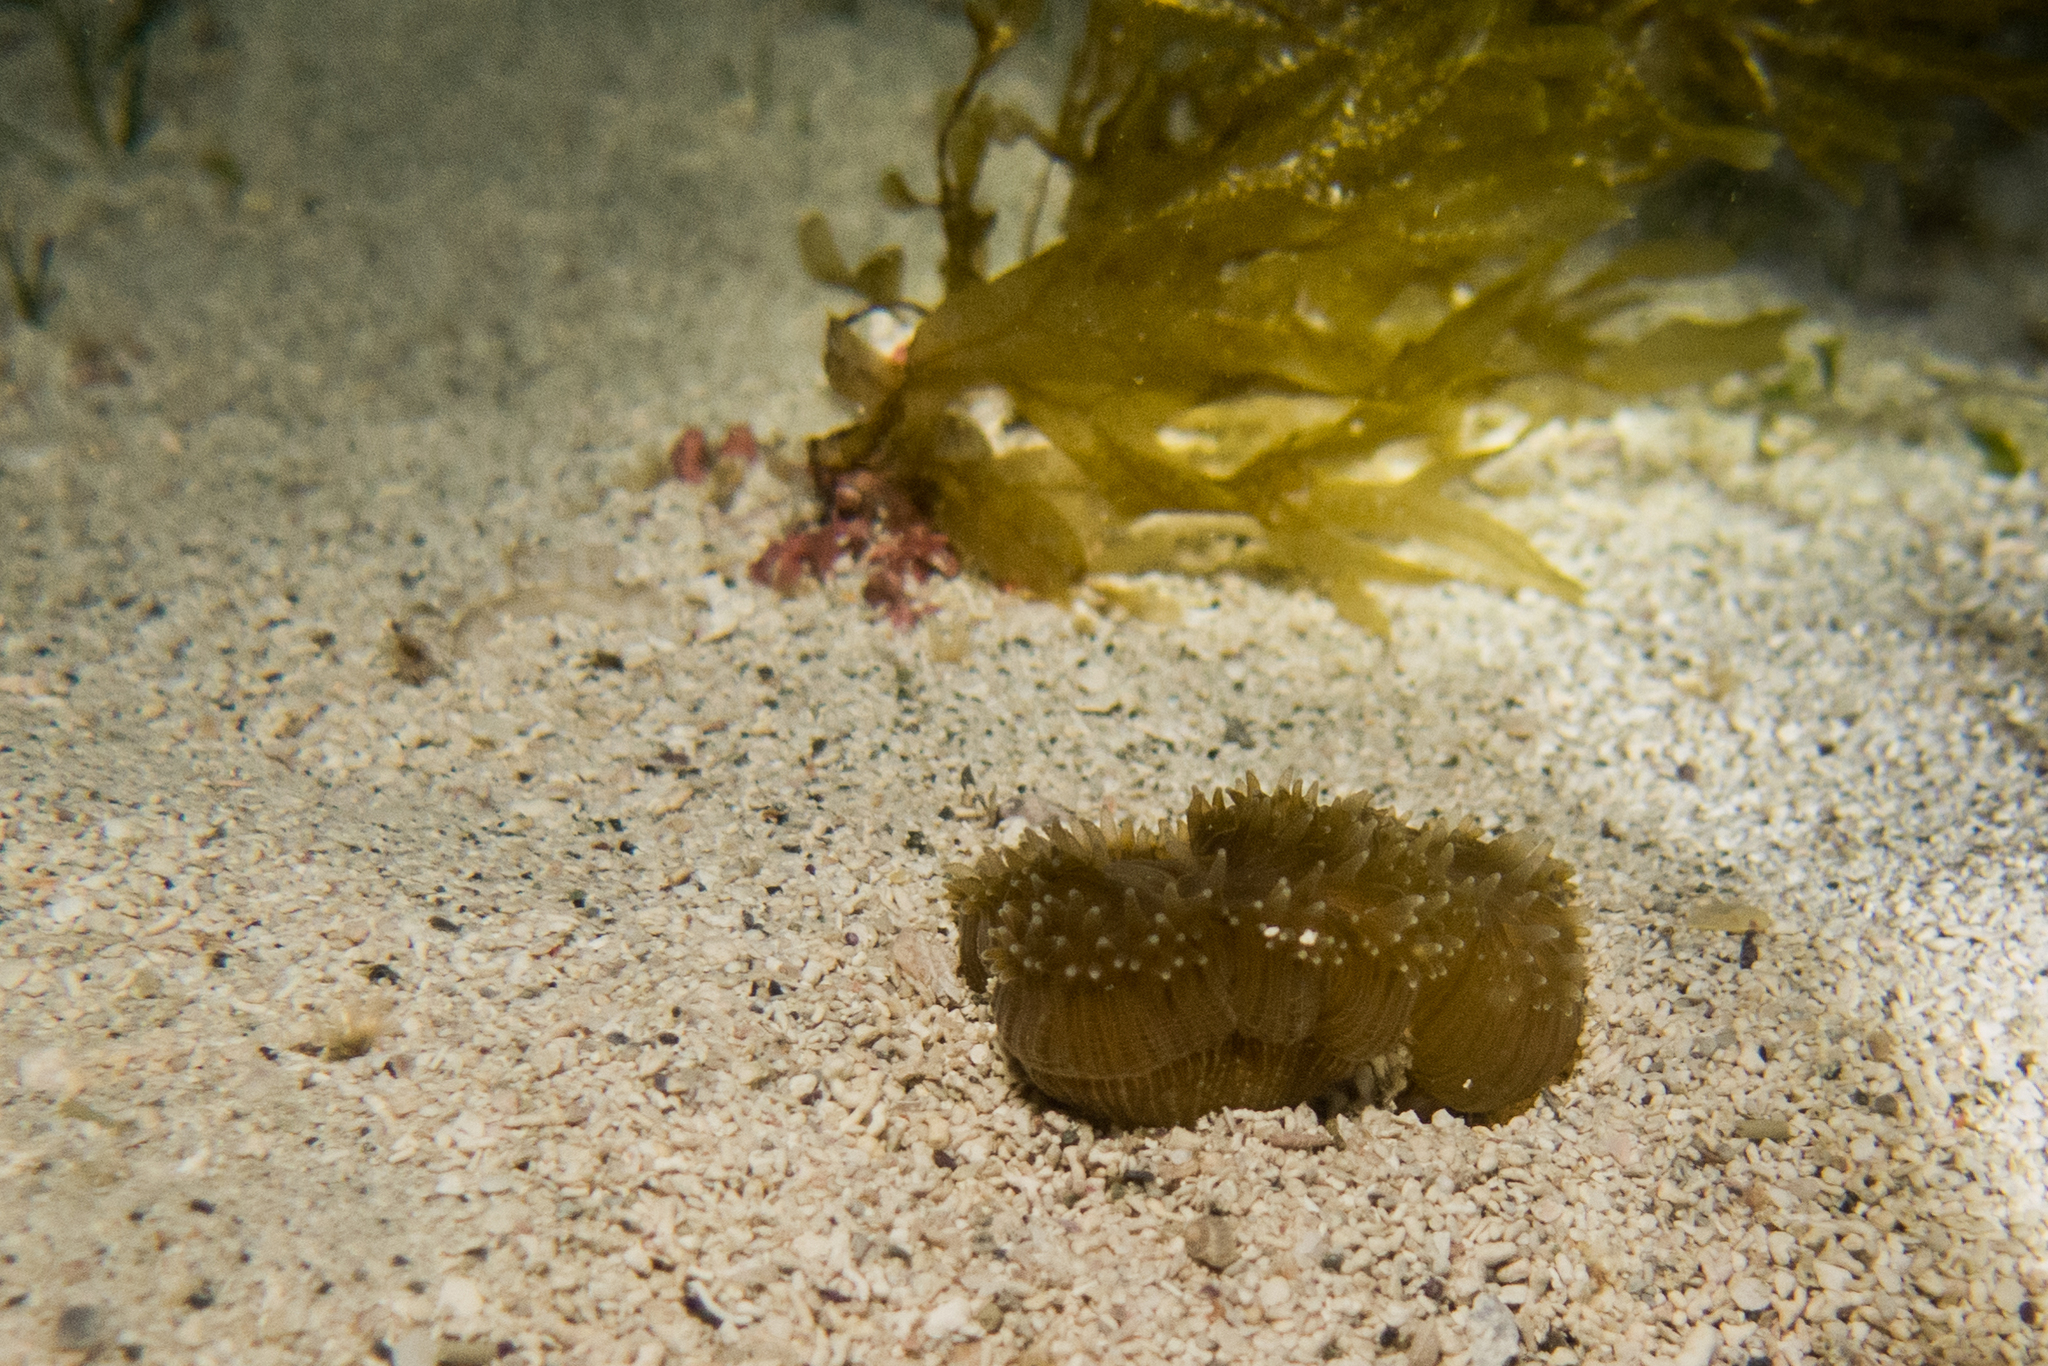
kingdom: Animalia
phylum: Cnidaria
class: Anthozoa
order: Scleractinia
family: Meandrinidae
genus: Meandrina
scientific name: Meandrina brasiliensis
